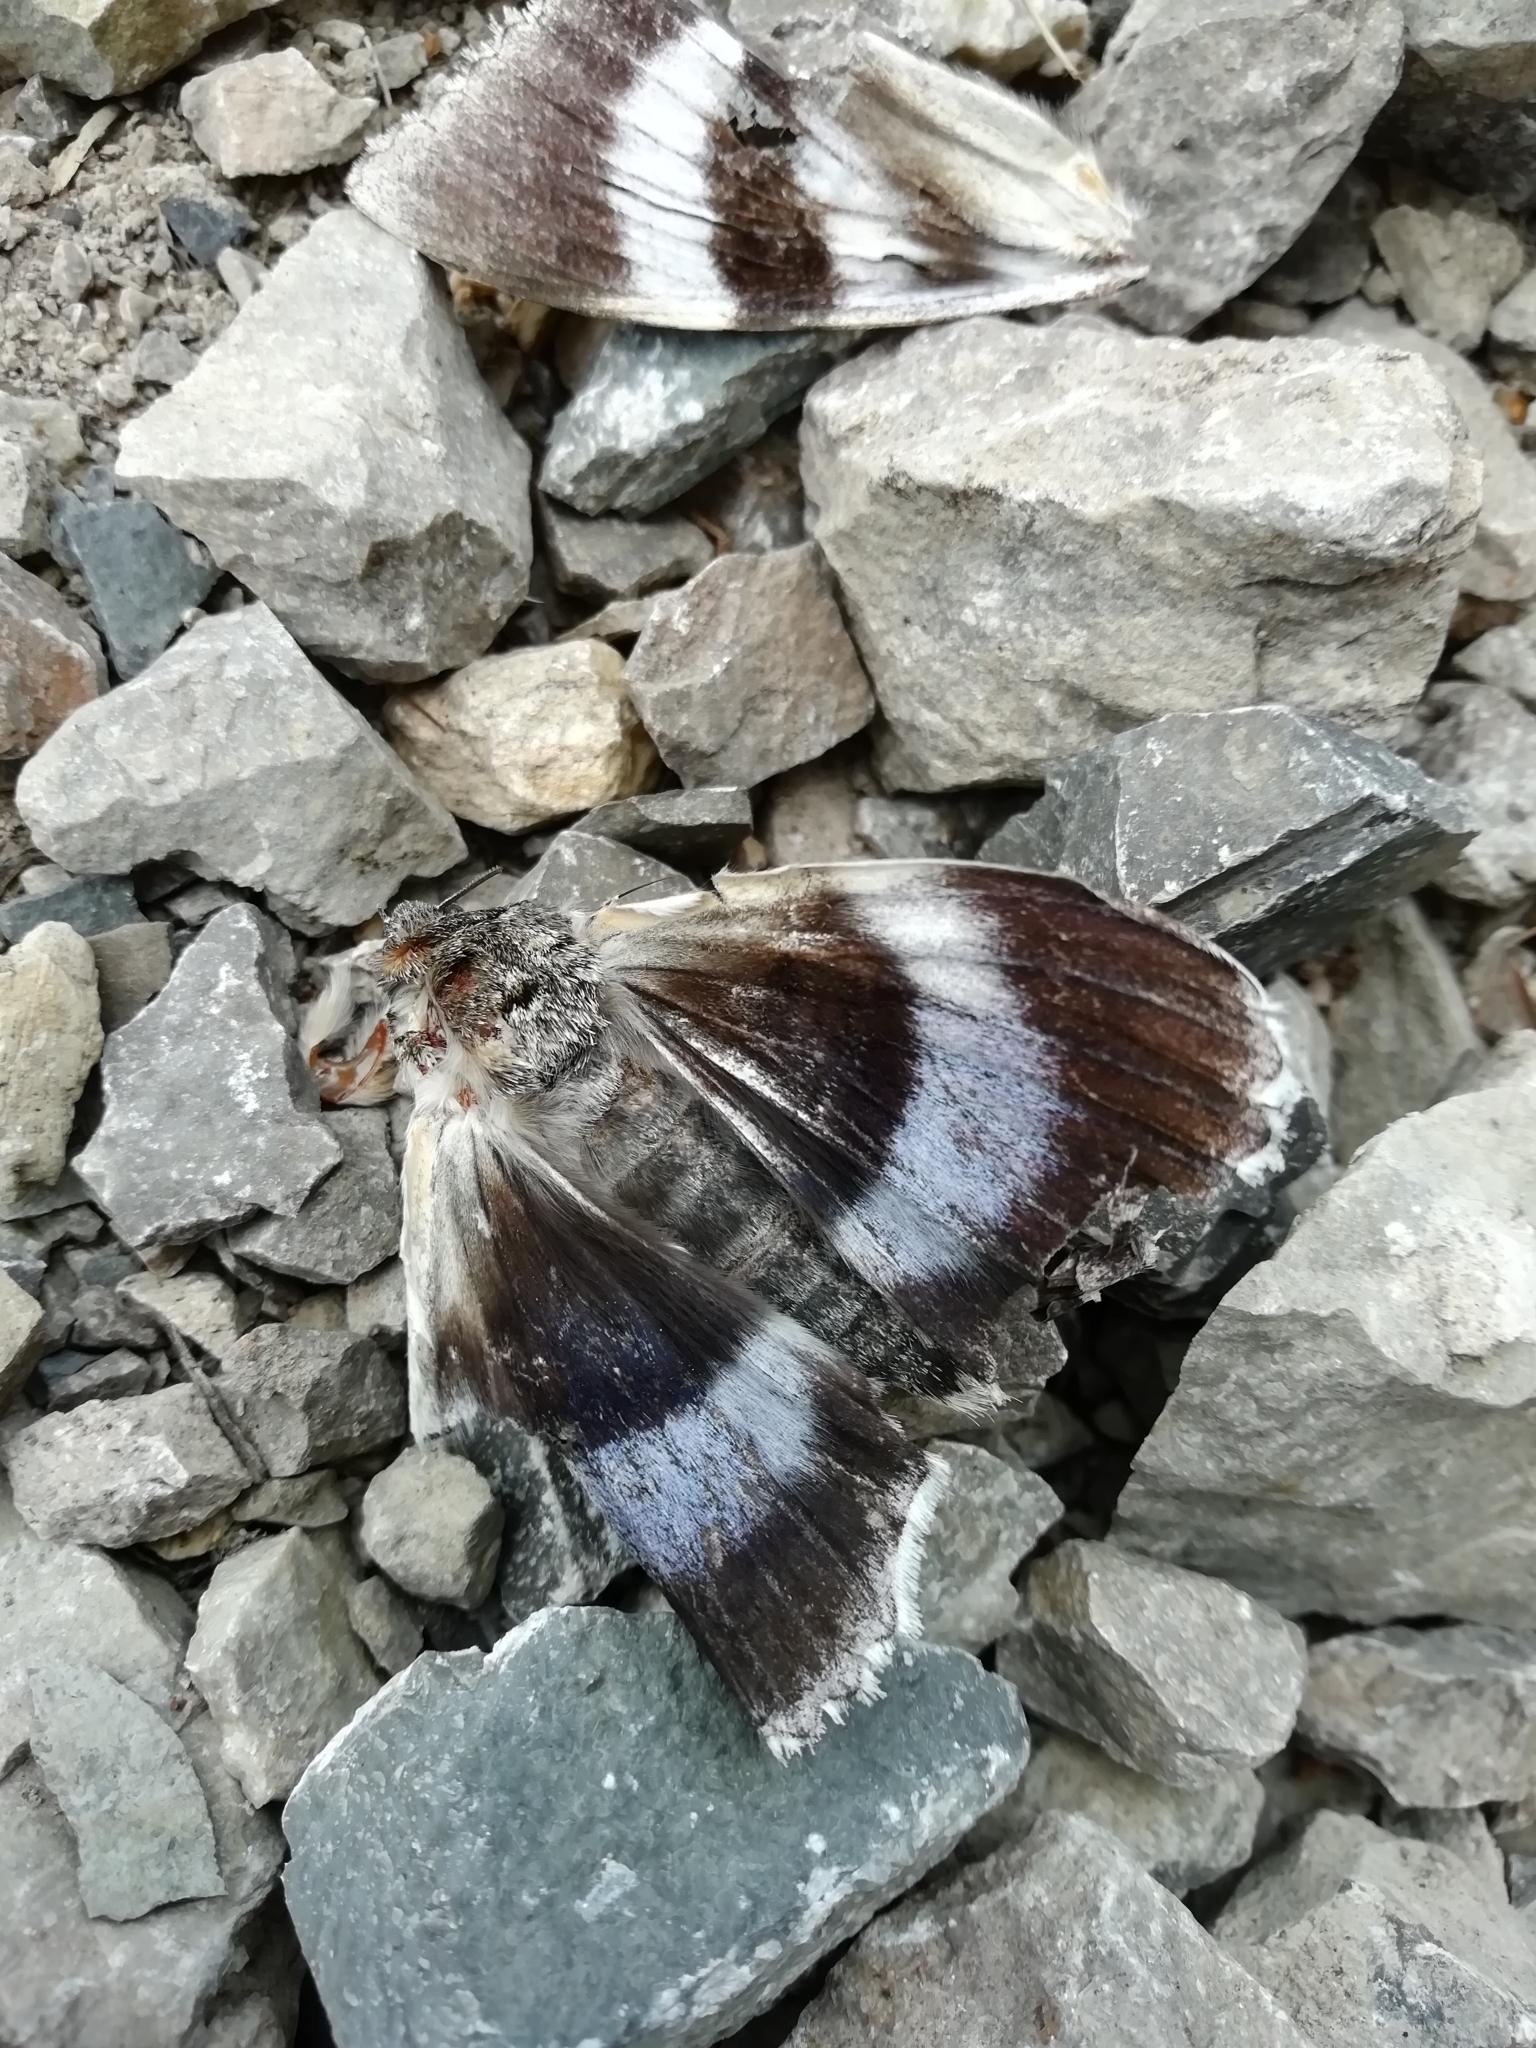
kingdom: Animalia
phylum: Arthropoda
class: Insecta
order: Lepidoptera
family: Erebidae
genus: Catocala
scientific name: Catocala fraxini
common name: Clifden nonpareil
